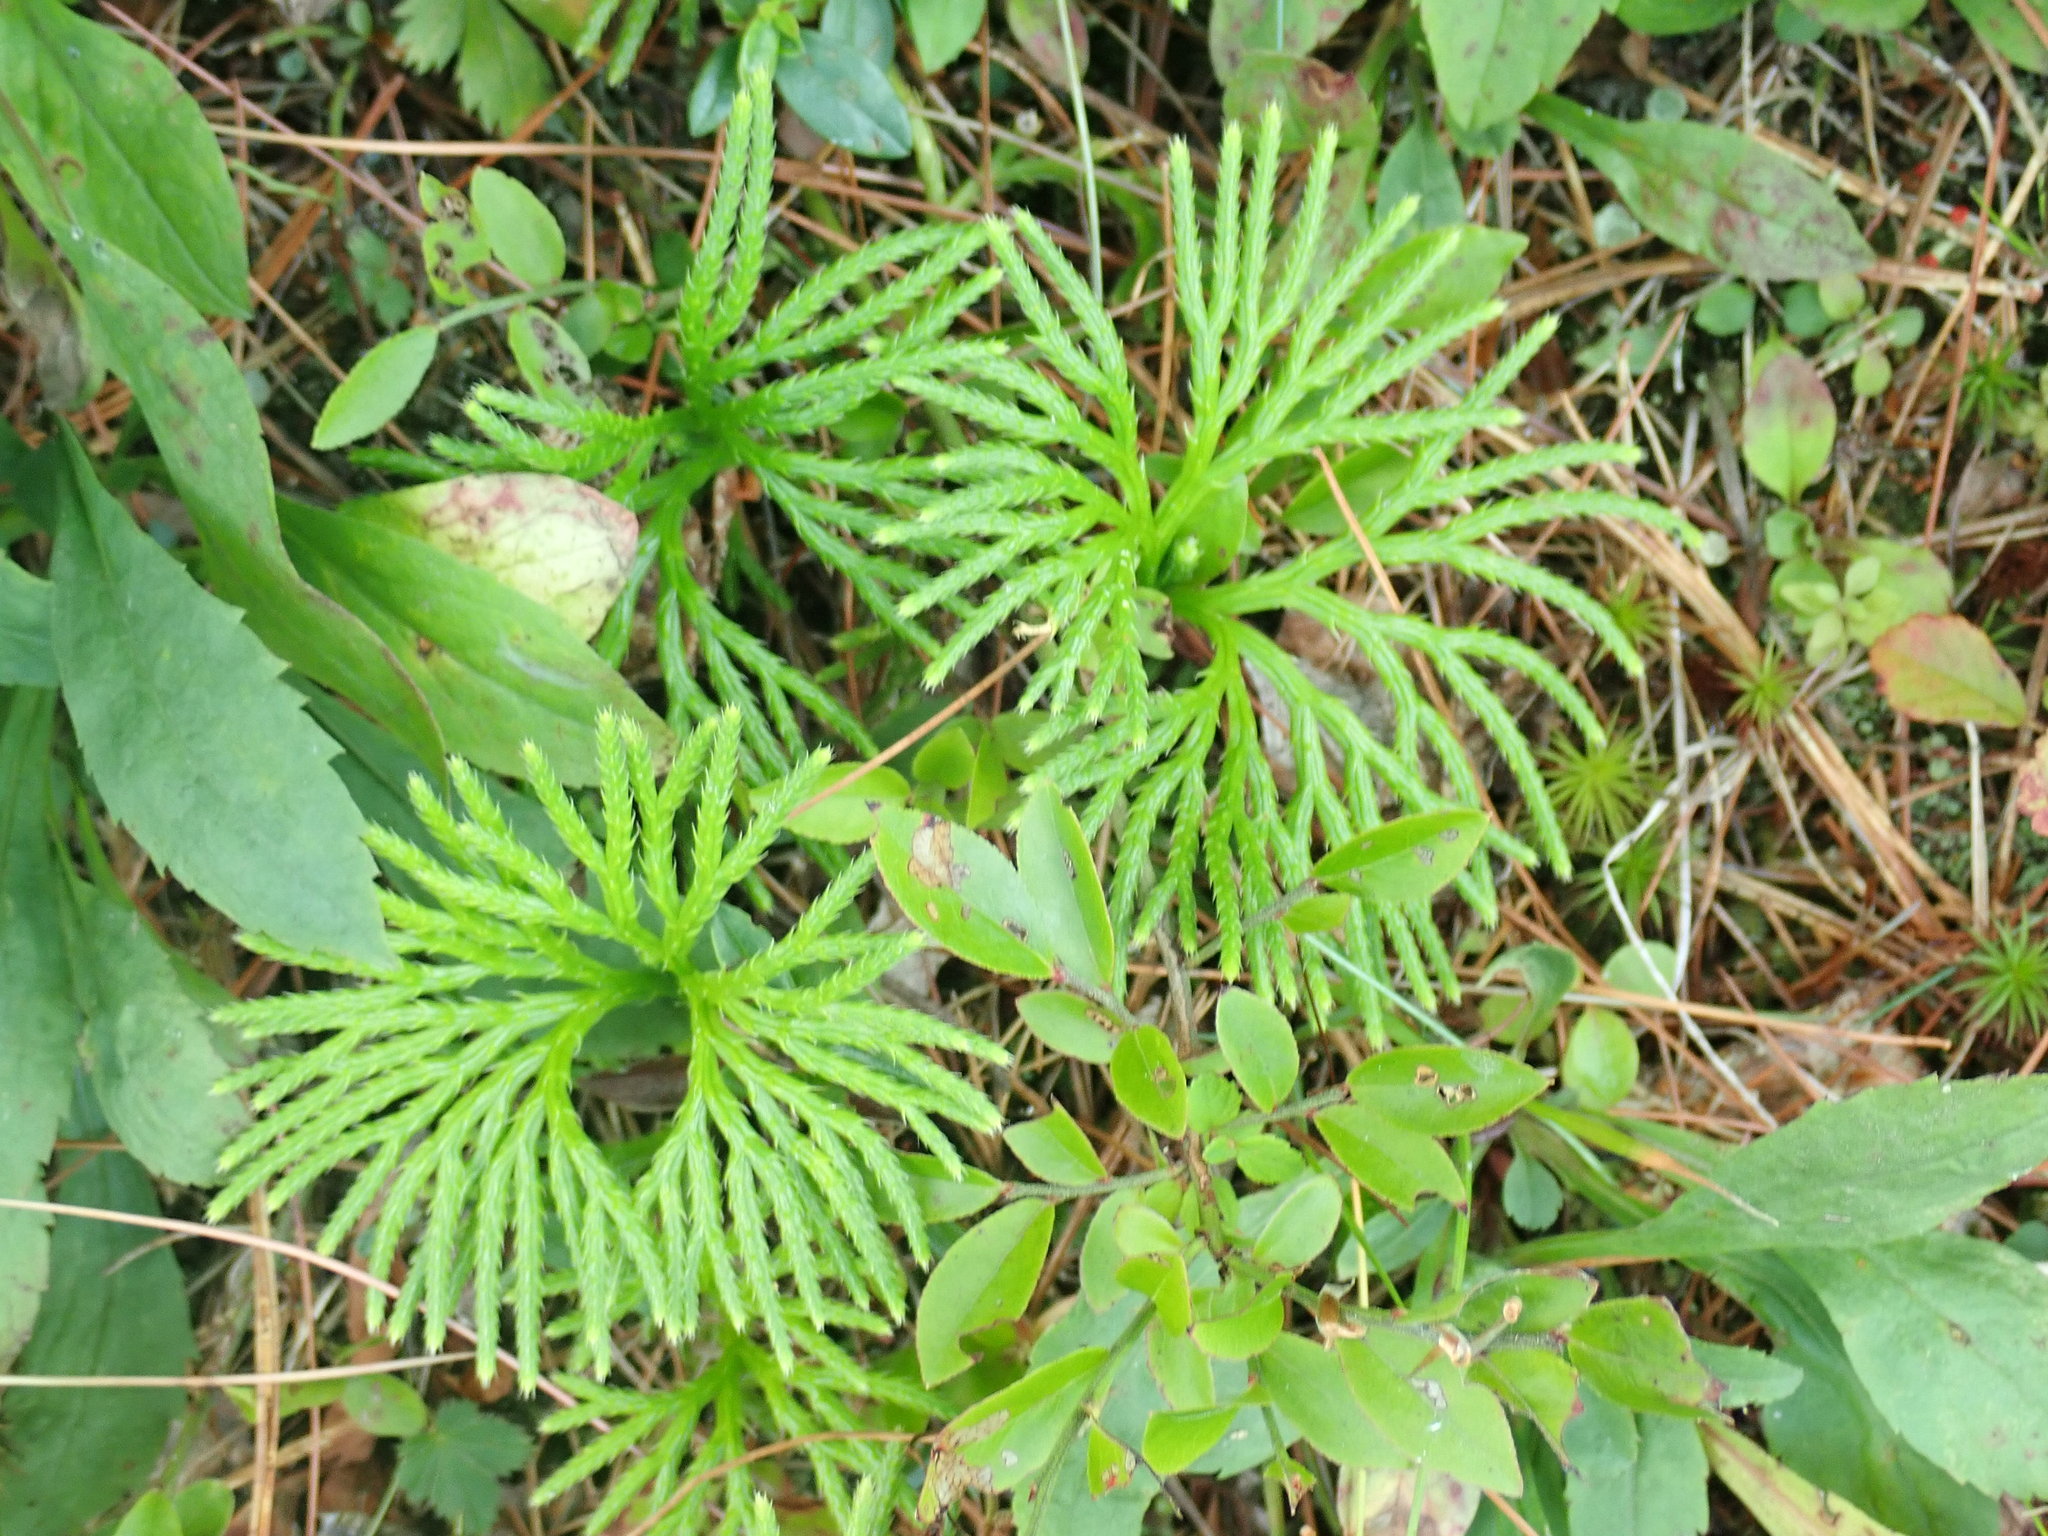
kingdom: Plantae
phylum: Tracheophyta
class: Lycopodiopsida
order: Lycopodiales
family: Lycopodiaceae
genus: Diphasiastrum
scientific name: Diphasiastrum digitatum
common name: Southern running-pine
